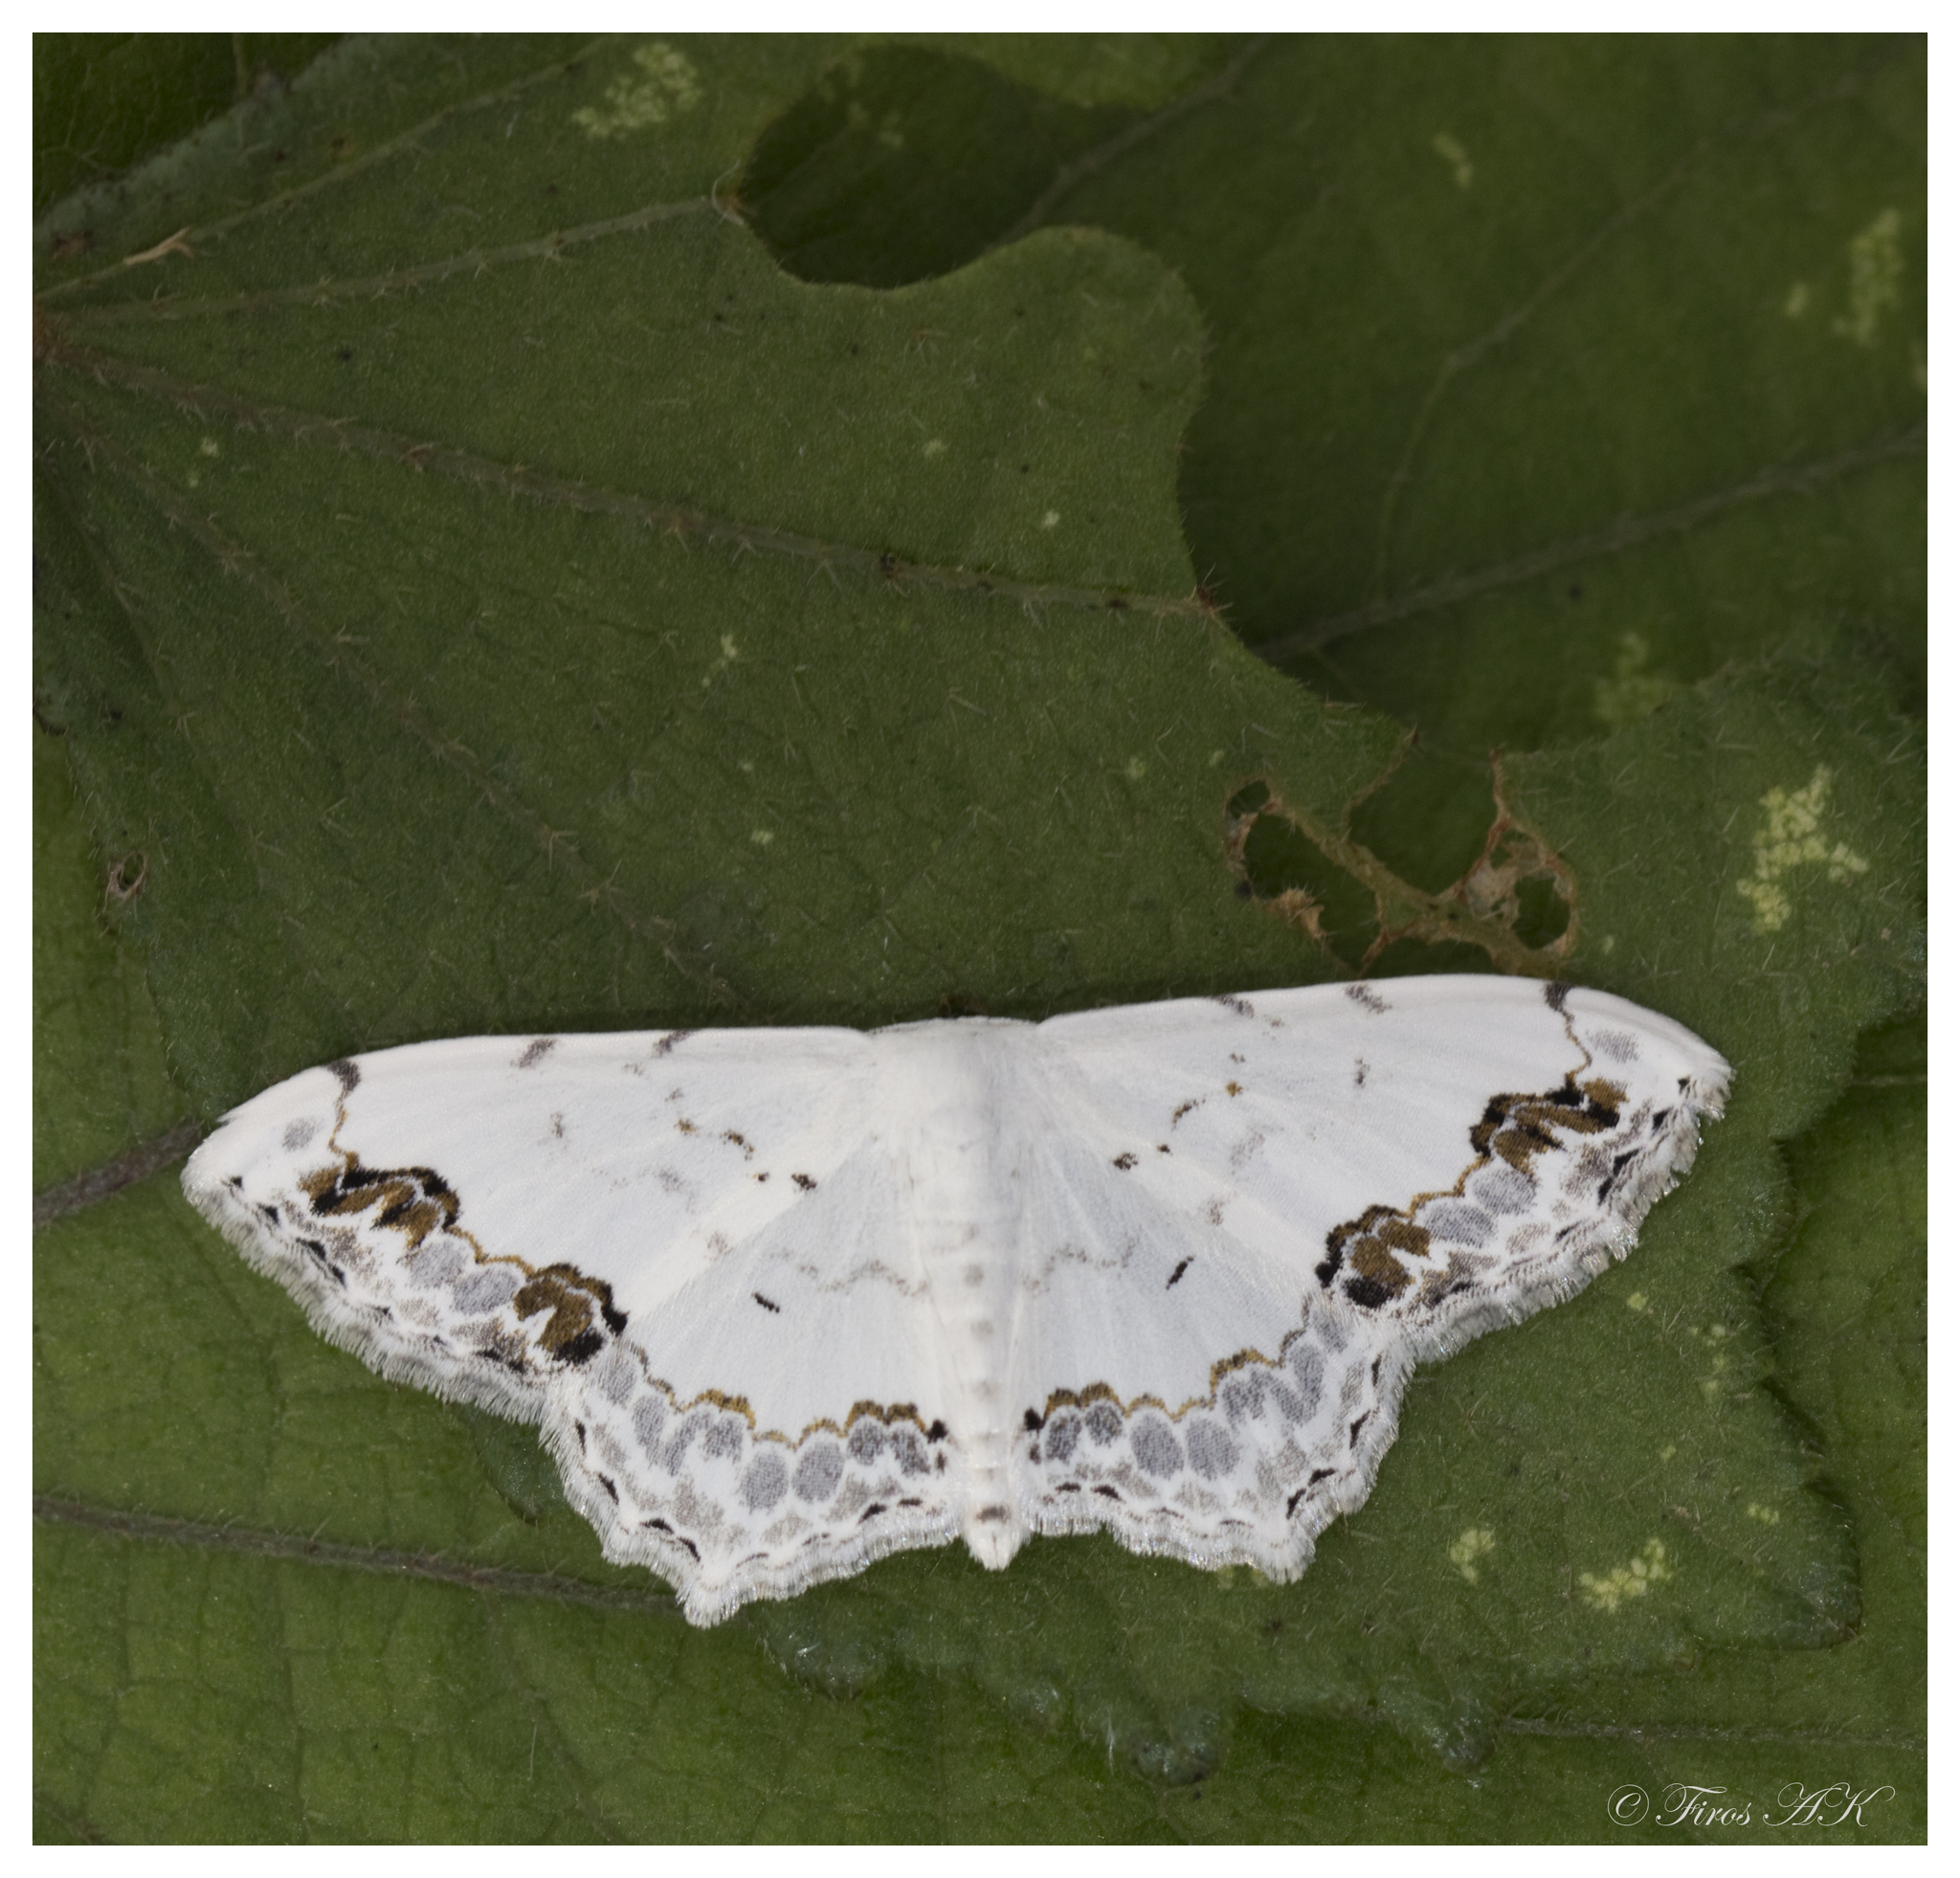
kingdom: Animalia
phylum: Arthropoda
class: Insecta
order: Lepidoptera
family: Geometridae
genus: Scopula
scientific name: Scopula pulchellata
